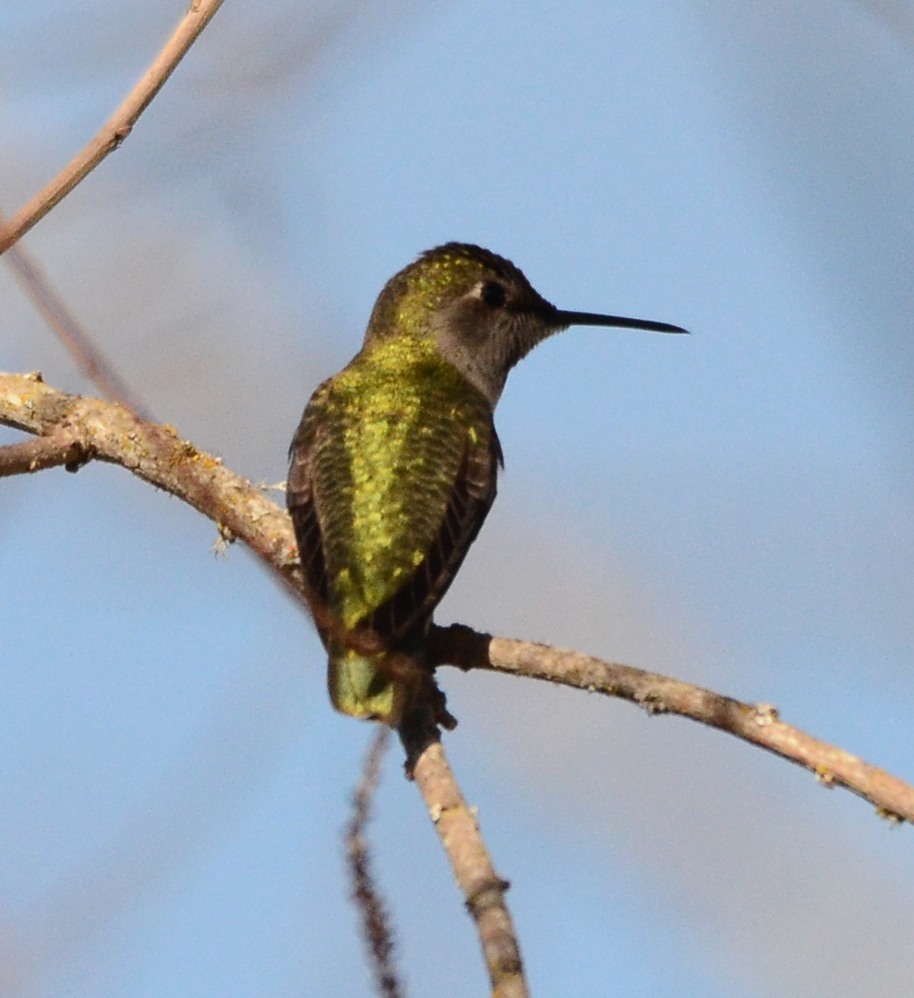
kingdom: Animalia
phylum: Chordata
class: Aves
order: Apodiformes
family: Trochilidae
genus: Calypte
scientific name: Calypte anna
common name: Anna's hummingbird
